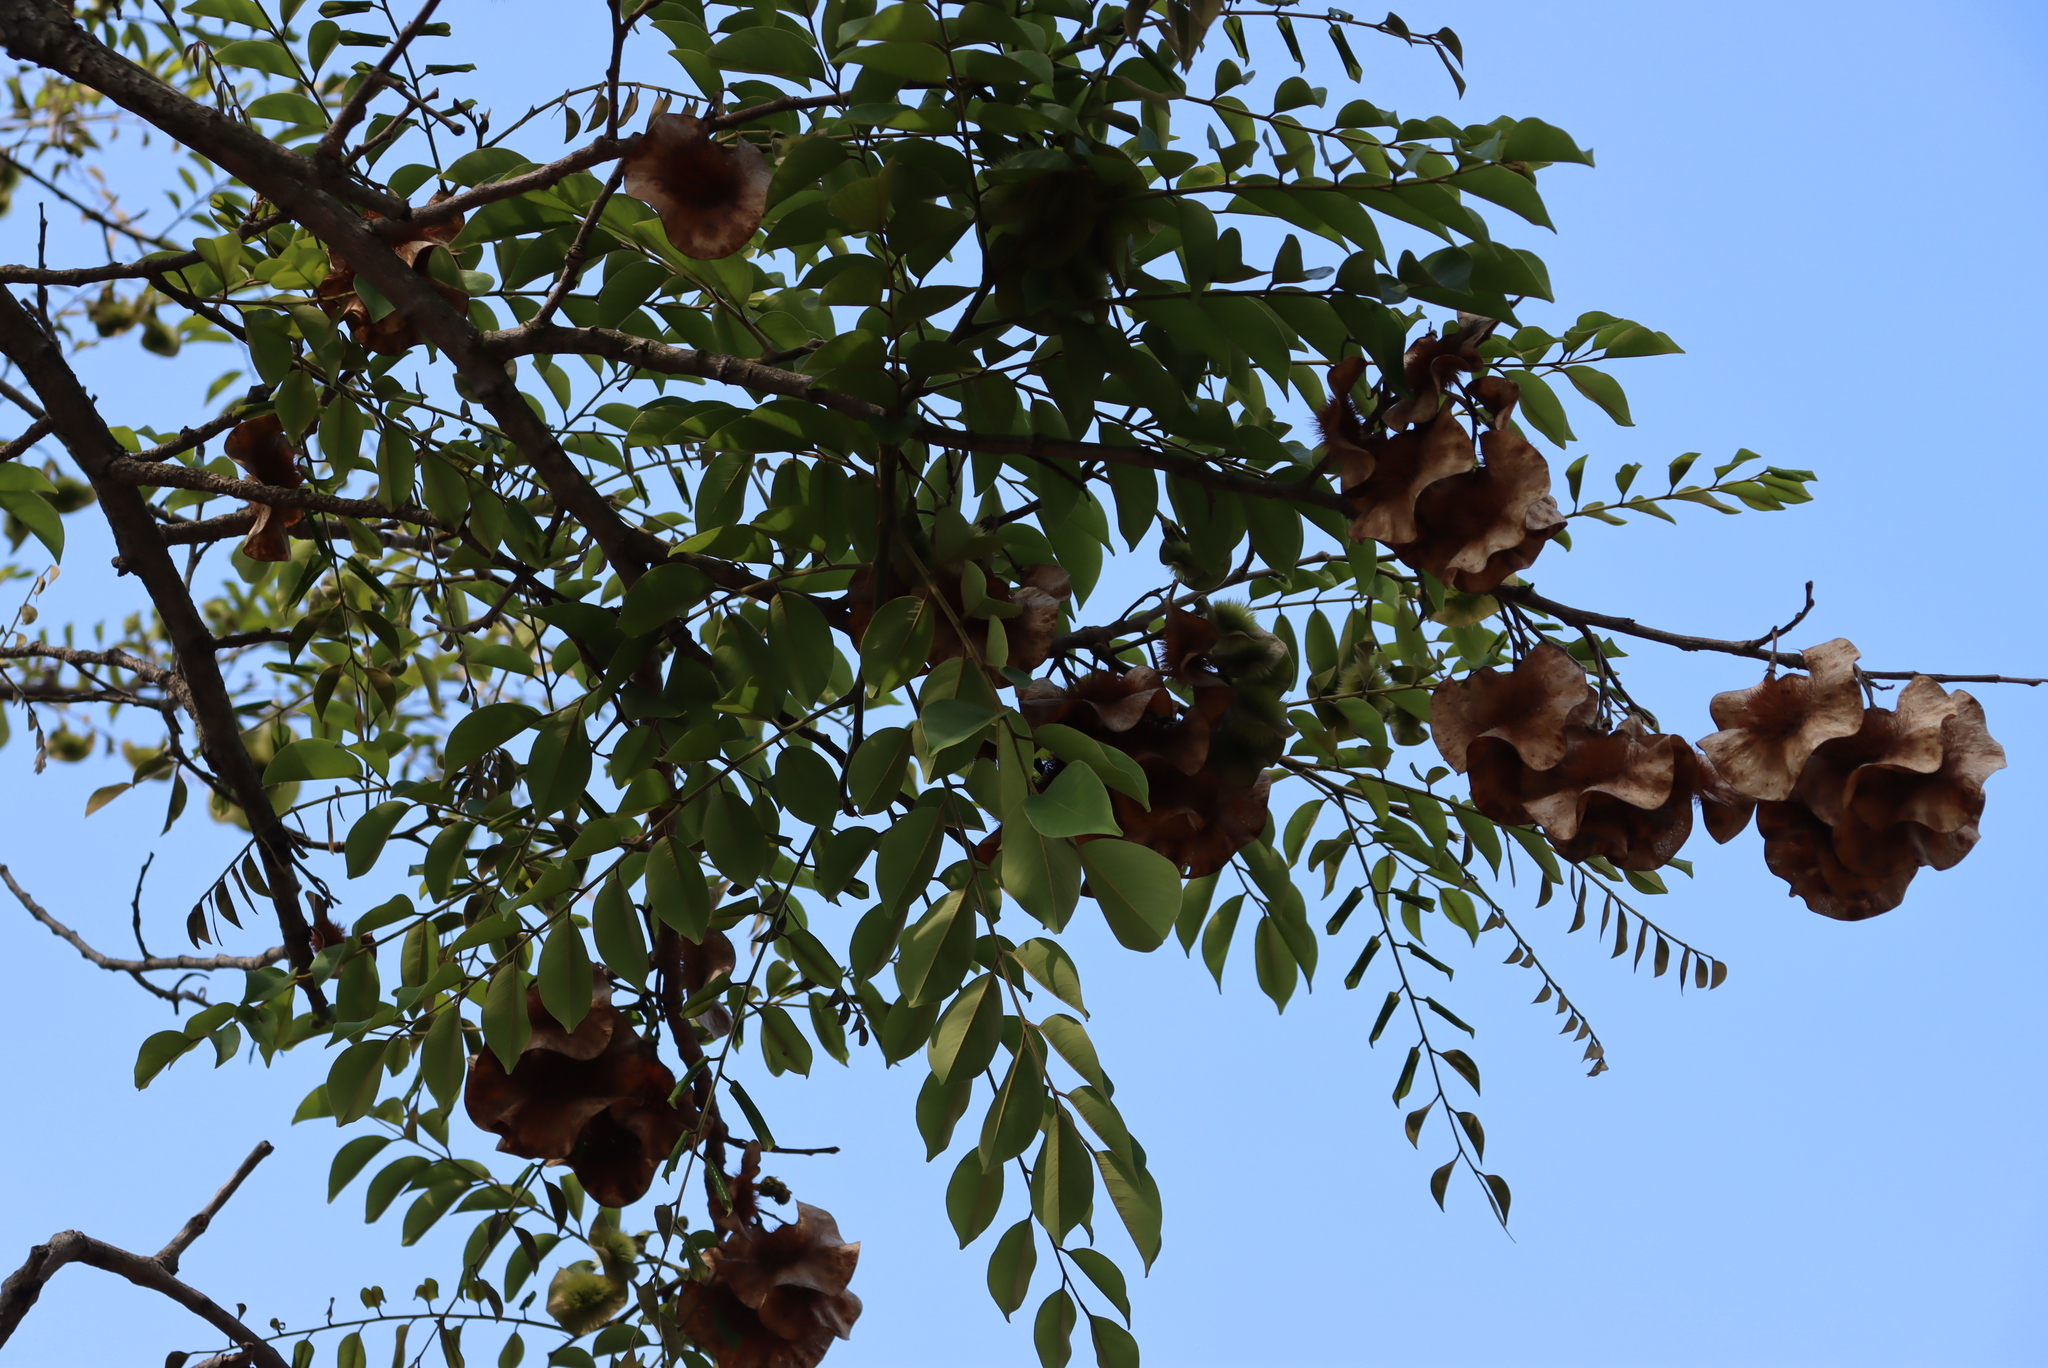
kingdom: Plantae
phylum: Tracheophyta
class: Magnoliopsida
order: Fabales
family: Fabaceae
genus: Pterocarpus
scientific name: Pterocarpus angolensis
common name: Bloodwood tree
